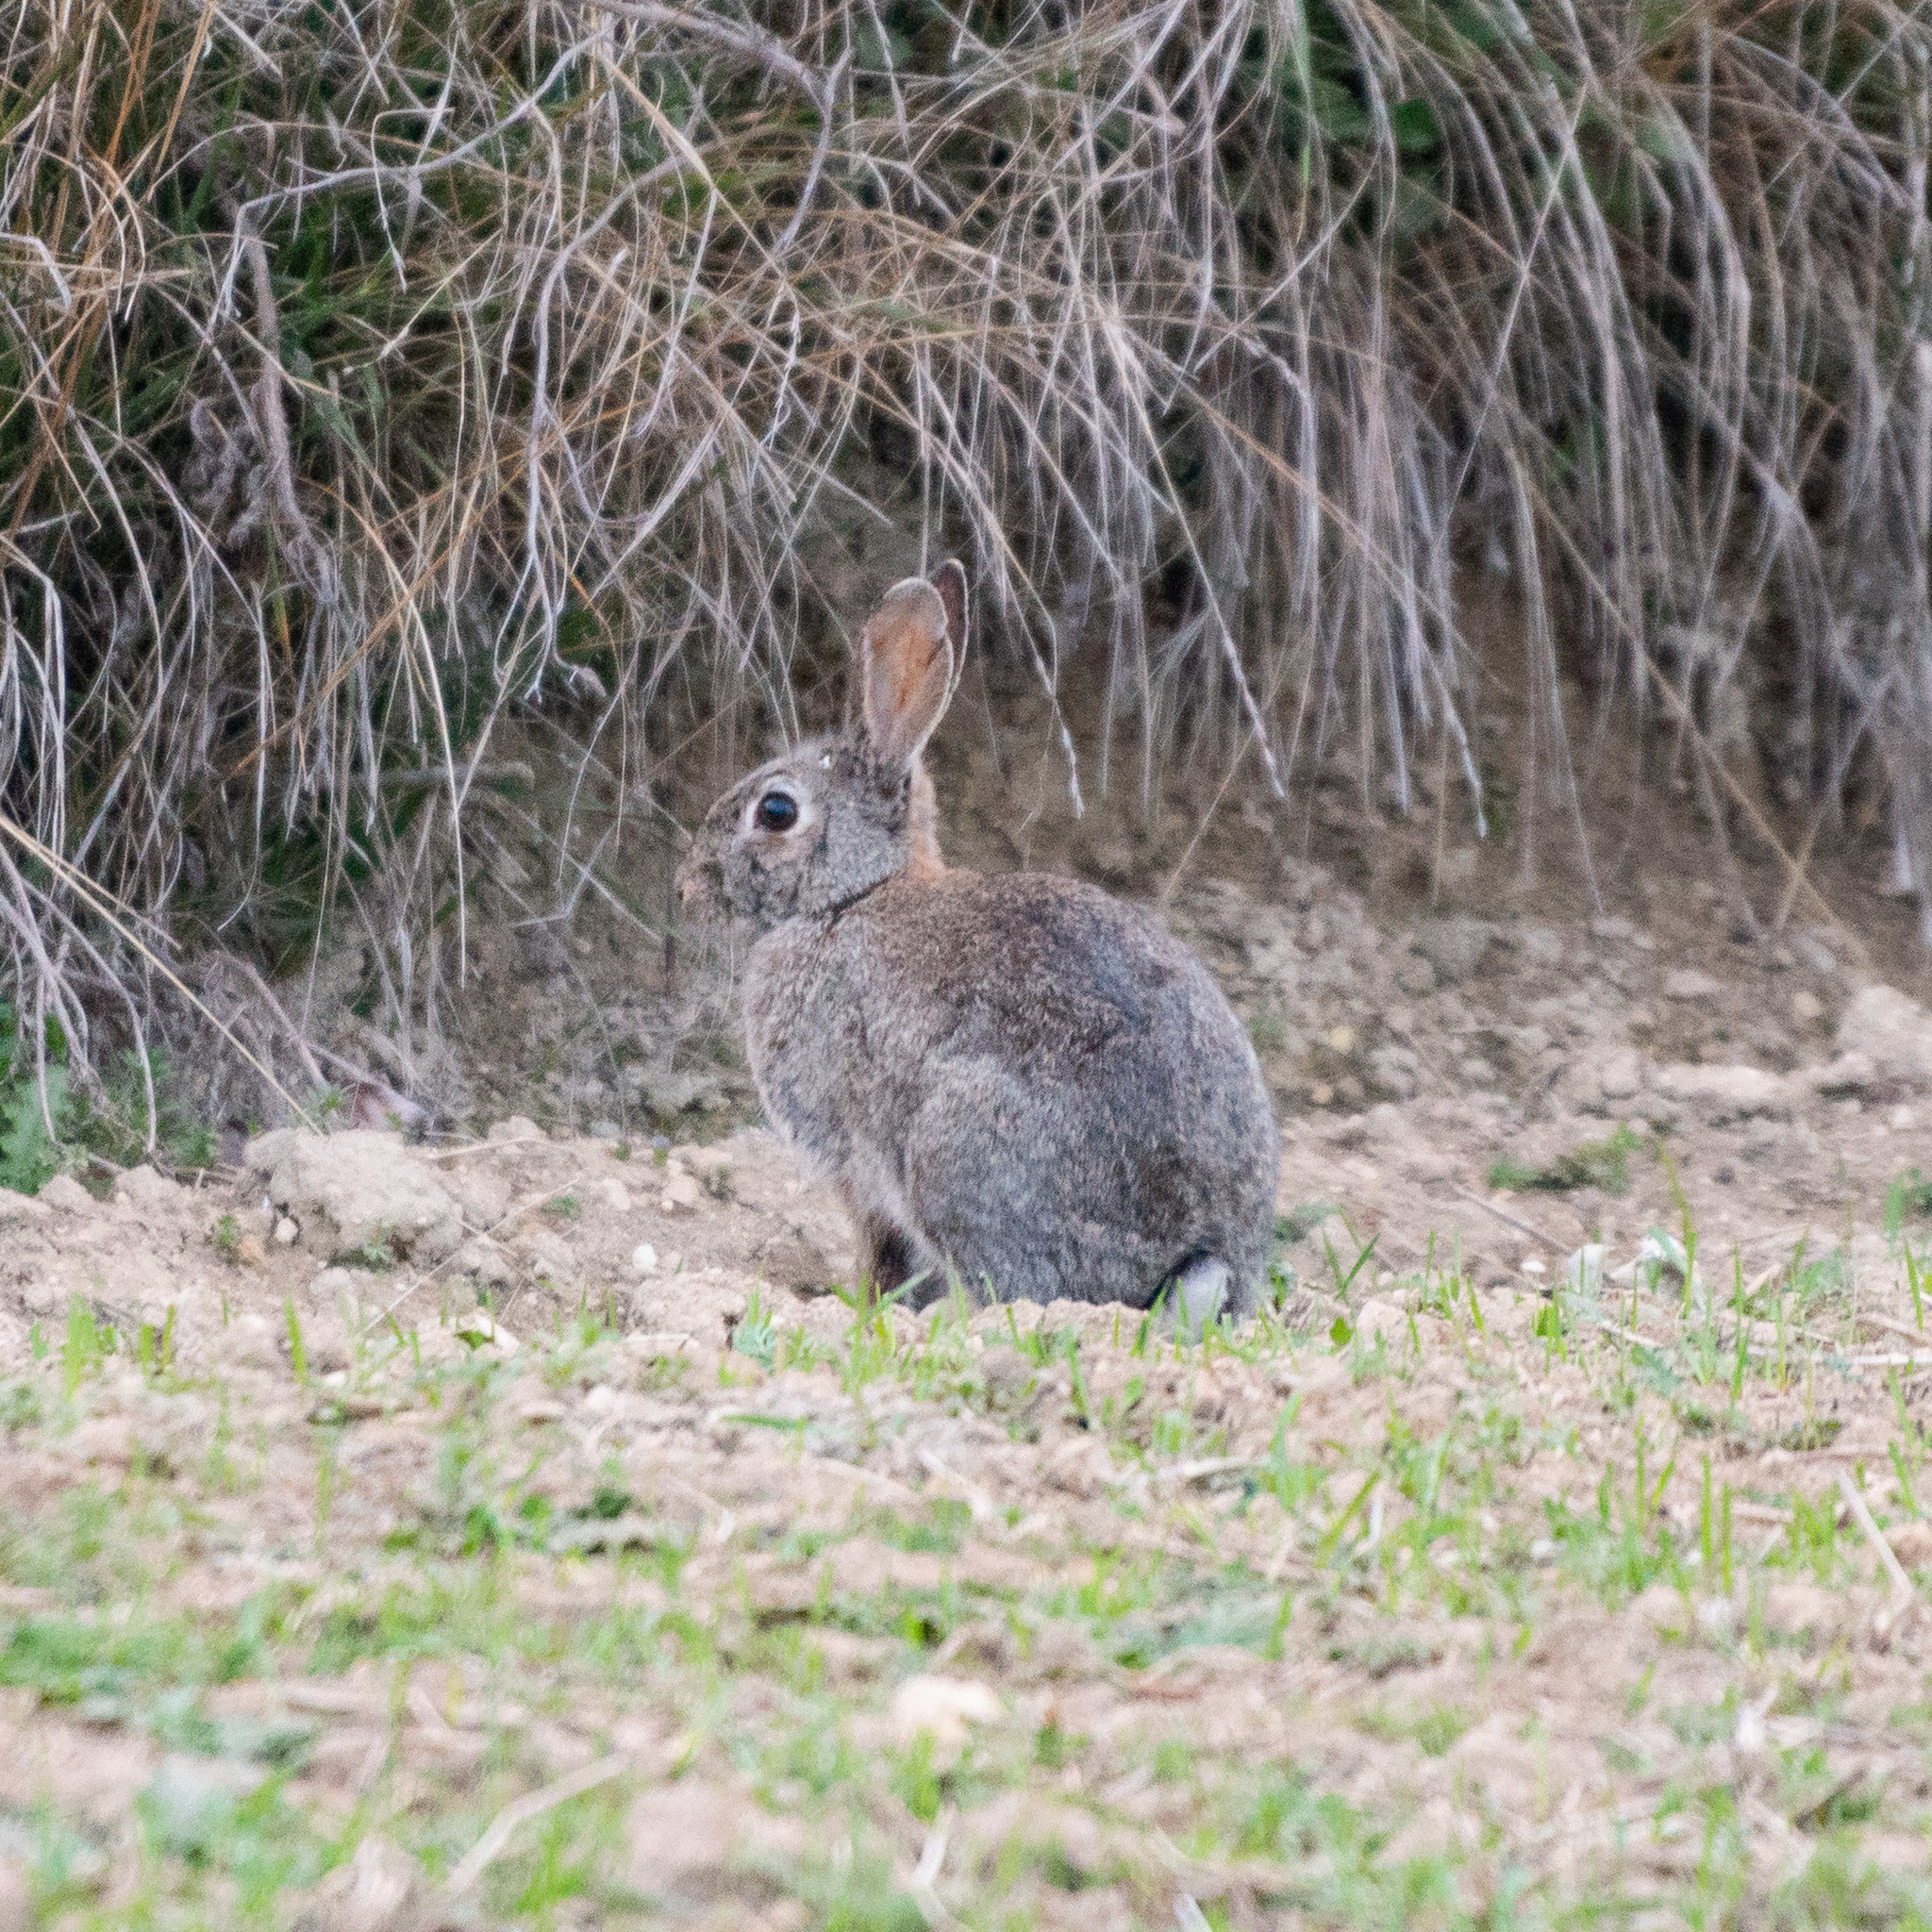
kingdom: Animalia
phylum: Chordata
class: Mammalia
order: Lagomorpha
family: Leporidae
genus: Oryctolagus
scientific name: Oryctolagus cuniculus
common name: European rabbit
